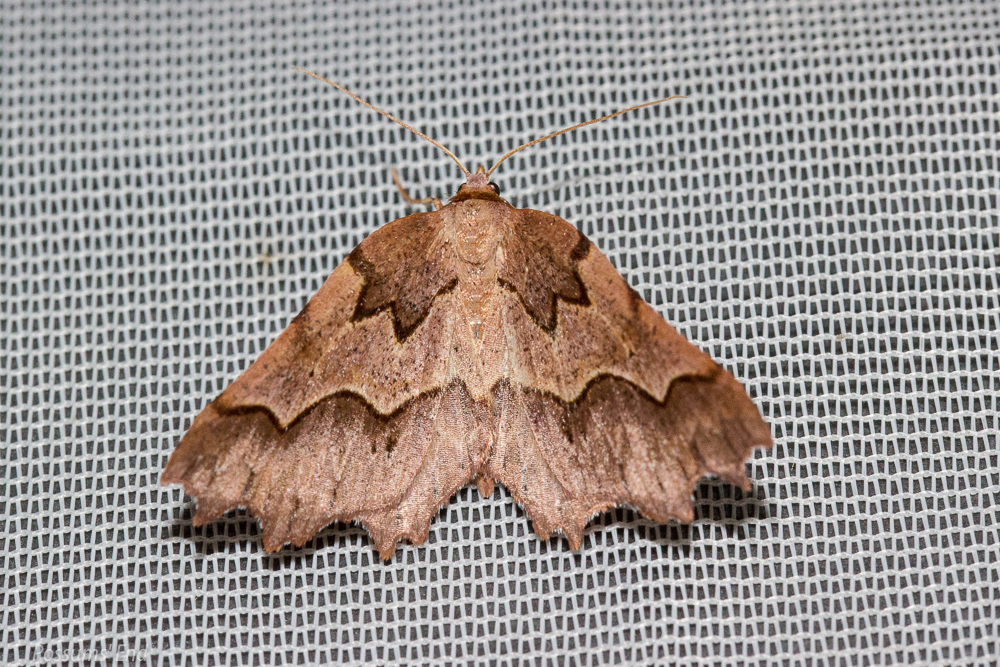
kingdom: Animalia
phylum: Arthropoda
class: Insecta
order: Lepidoptera
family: Geometridae
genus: Ischalis
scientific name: Ischalis fortinata
